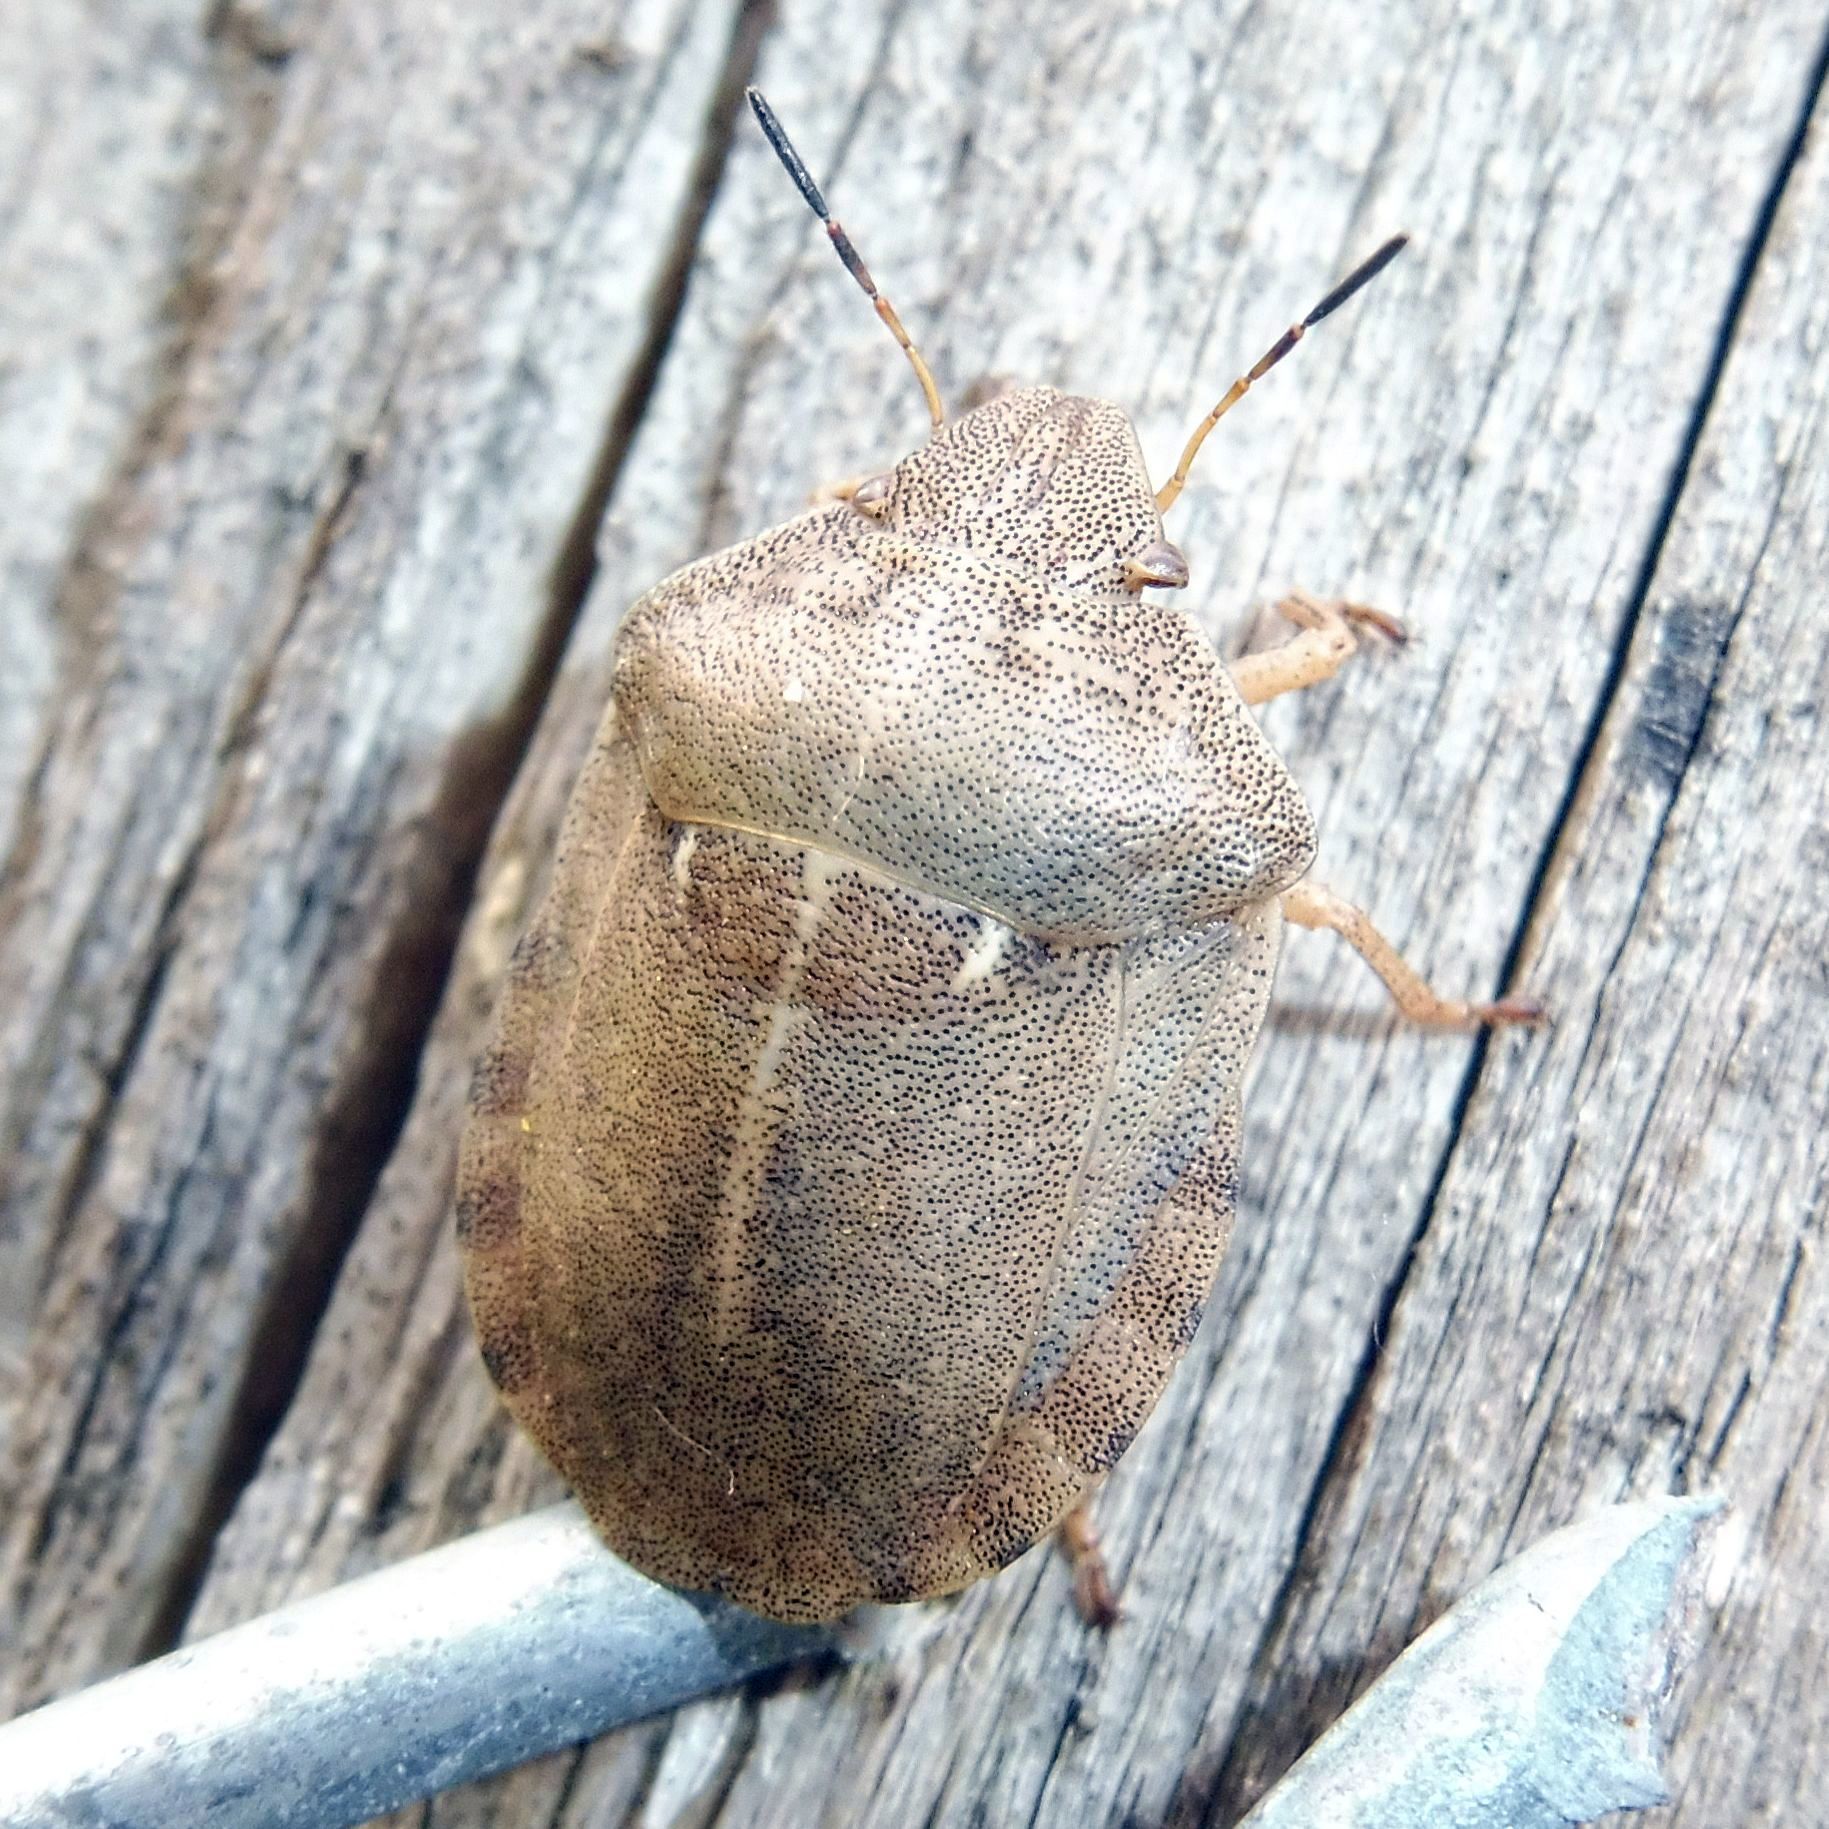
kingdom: Animalia
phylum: Arthropoda
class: Insecta
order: Hemiptera
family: Scutelleridae
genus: Eurygaster
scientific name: Eurygaster testudinaria
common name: Tortoise bug
